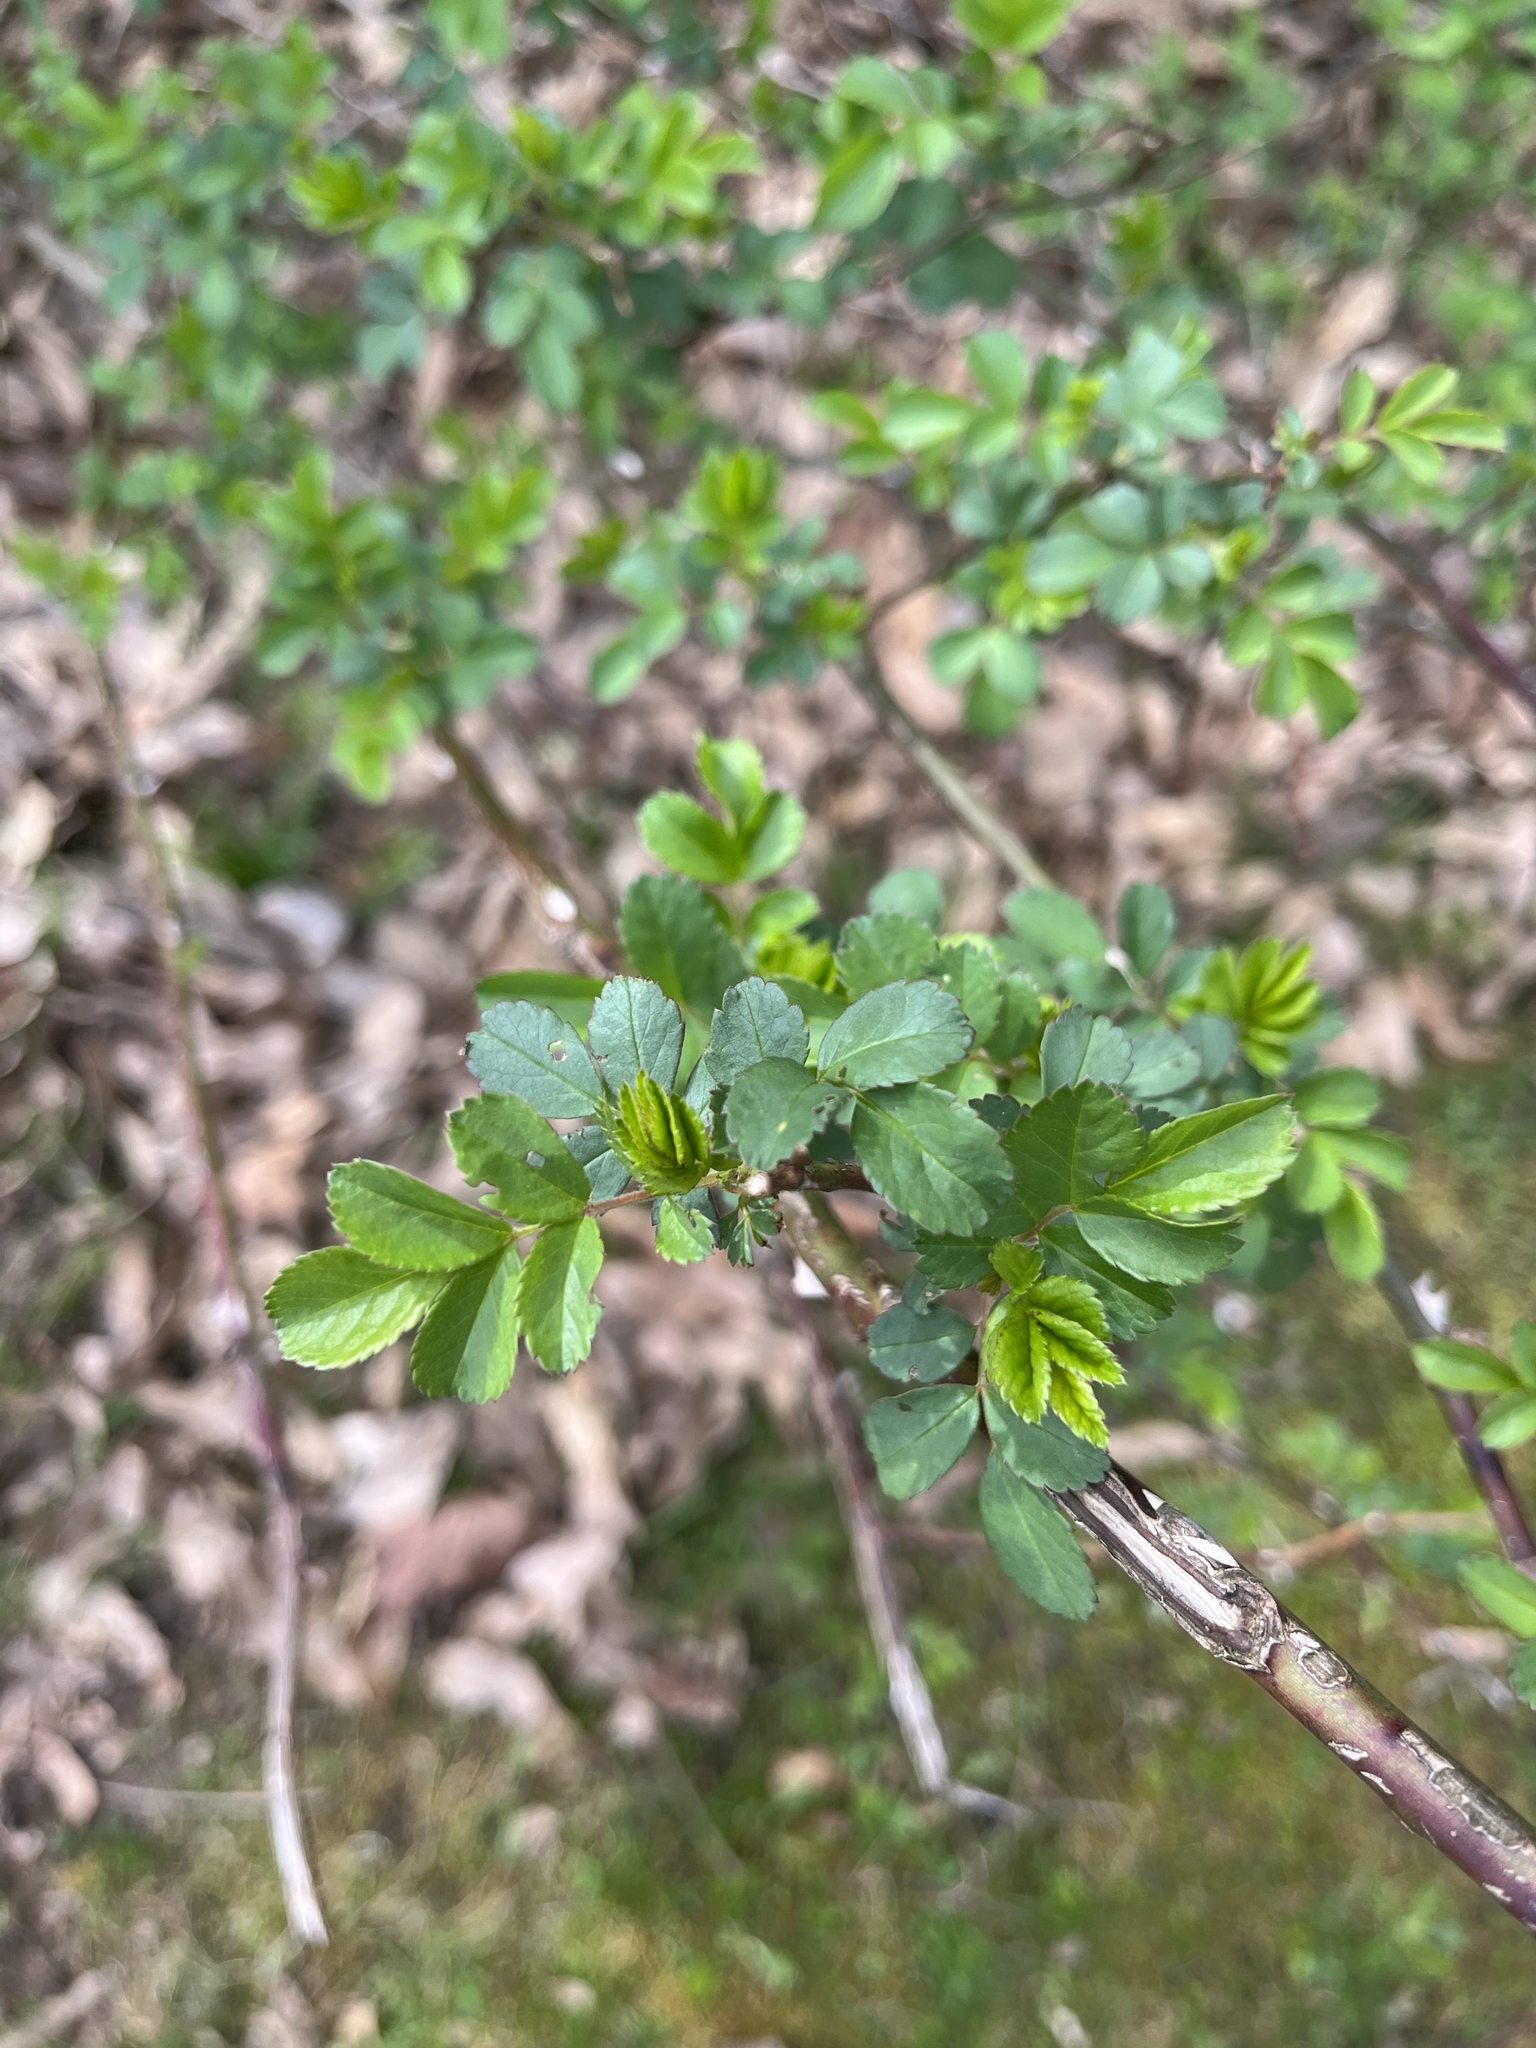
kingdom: Plantae
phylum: Tracheophyta
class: Magnoliopsida
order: Rosales
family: Rosaceae
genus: Rosa
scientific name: Rosa multiflora
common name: Multiflora rose
